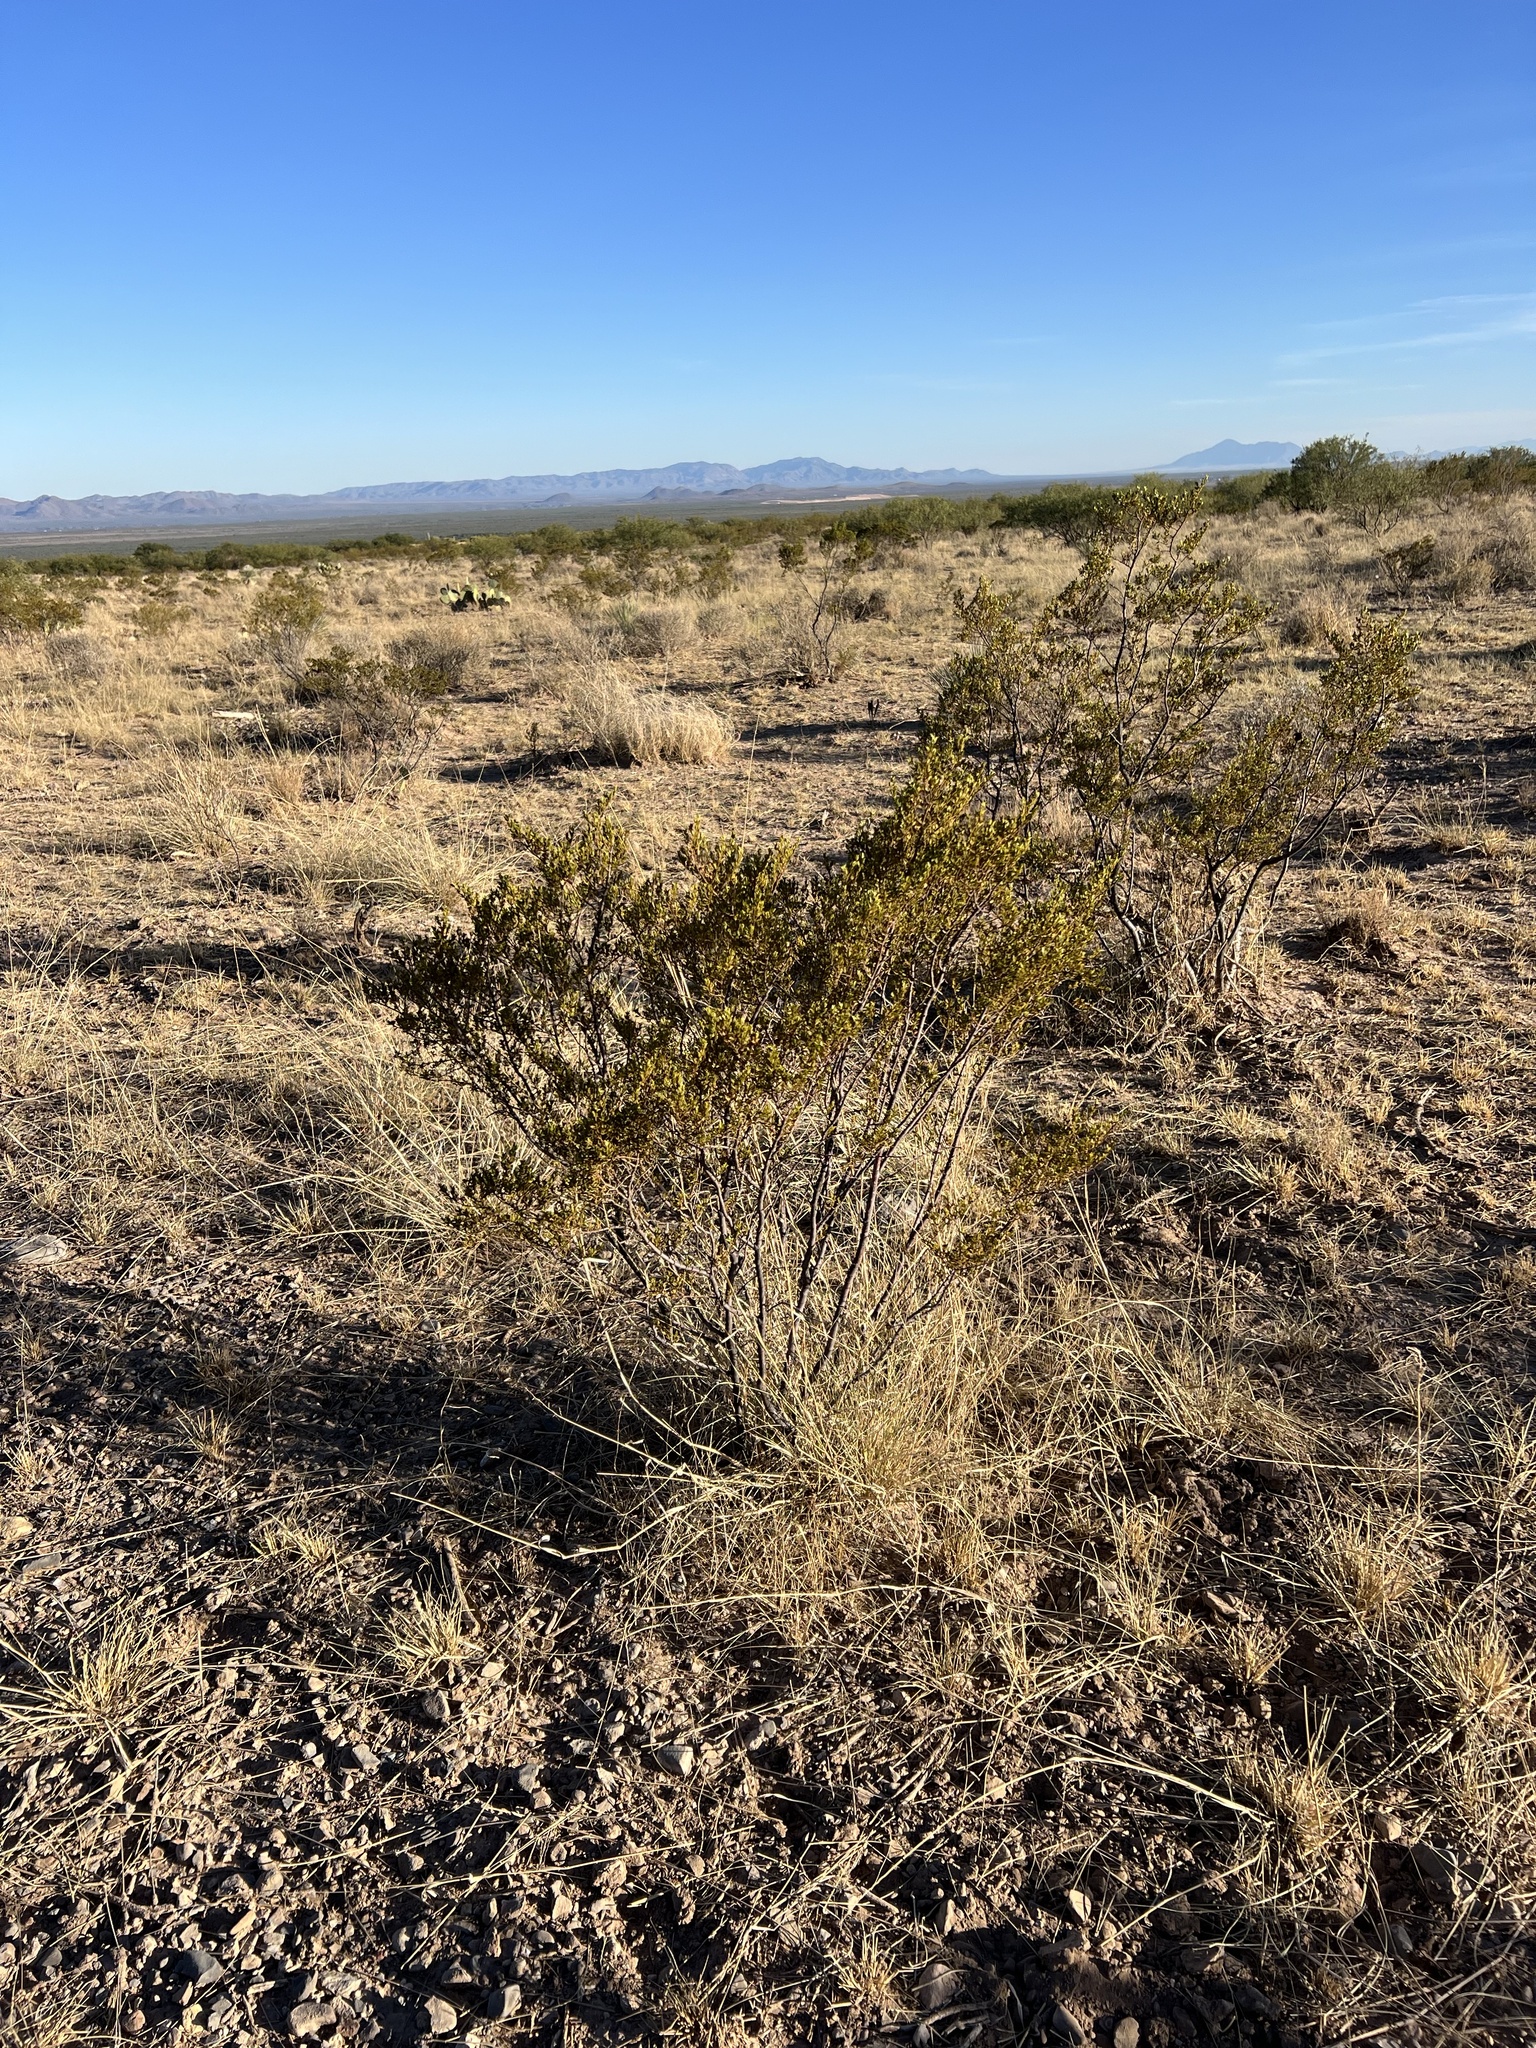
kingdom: Plantae
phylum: Tracheophyta
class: Magnoliopsida
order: Zygophyllales
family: Zygophyllaceae
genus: Larrea
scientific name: Larrea tridentata
